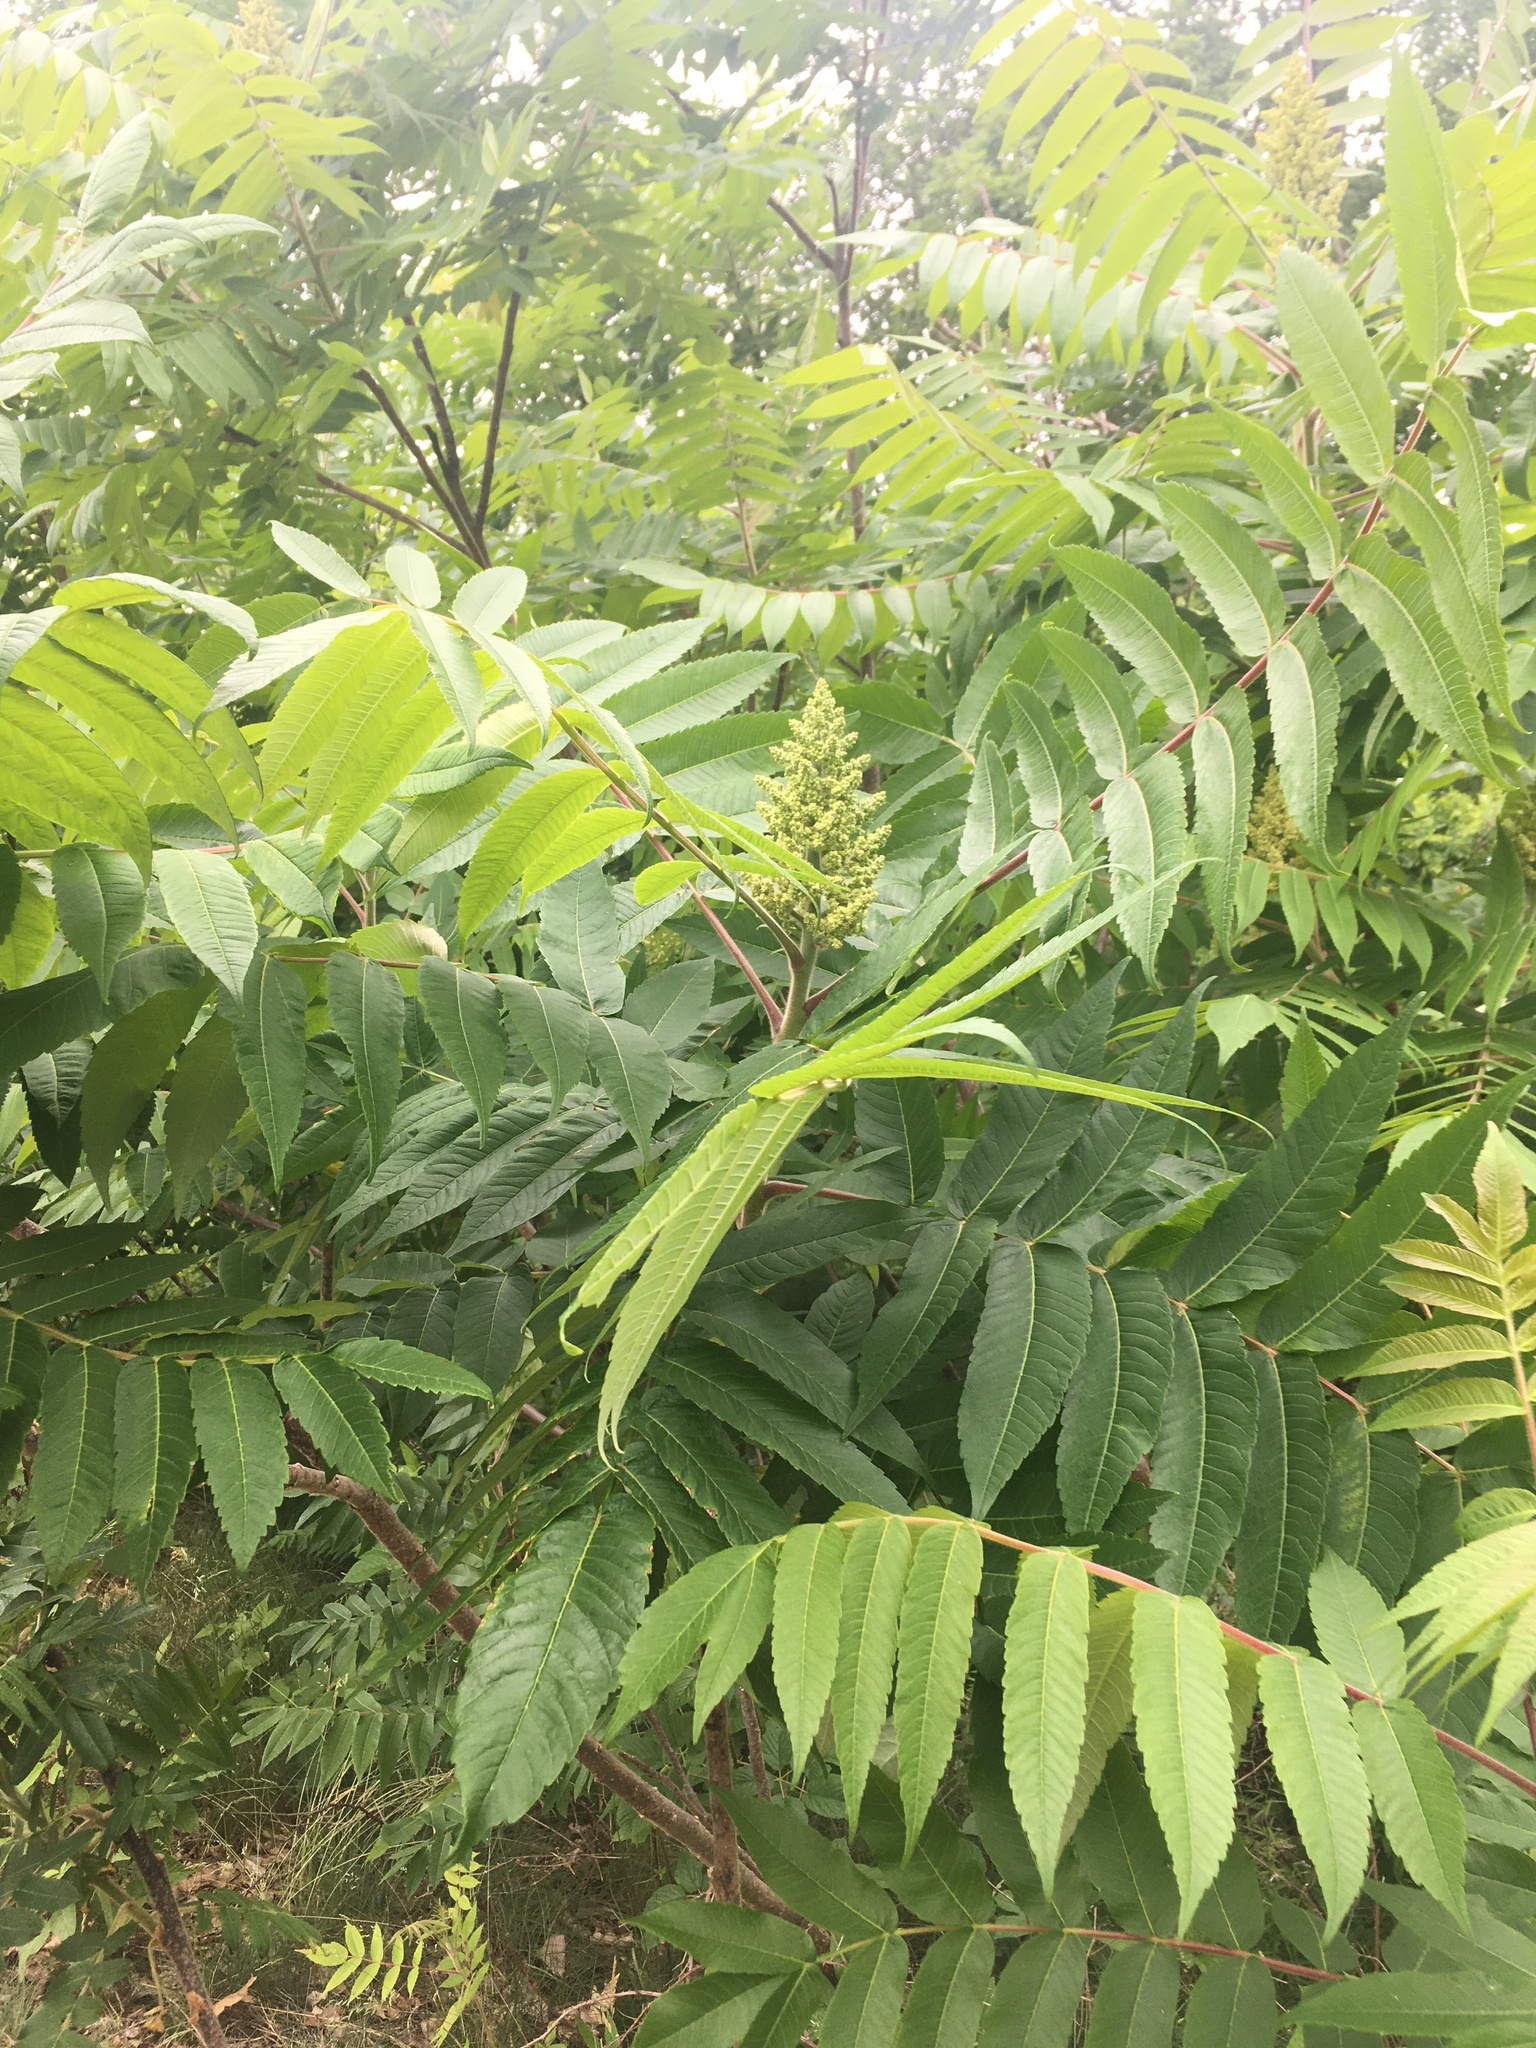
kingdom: Plantae
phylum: Tracheophyta
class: Magnoliopsida
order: Sapindales
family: Anacardiaceae
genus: Rhus
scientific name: Rhus typhina
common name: Staghorn sumac
